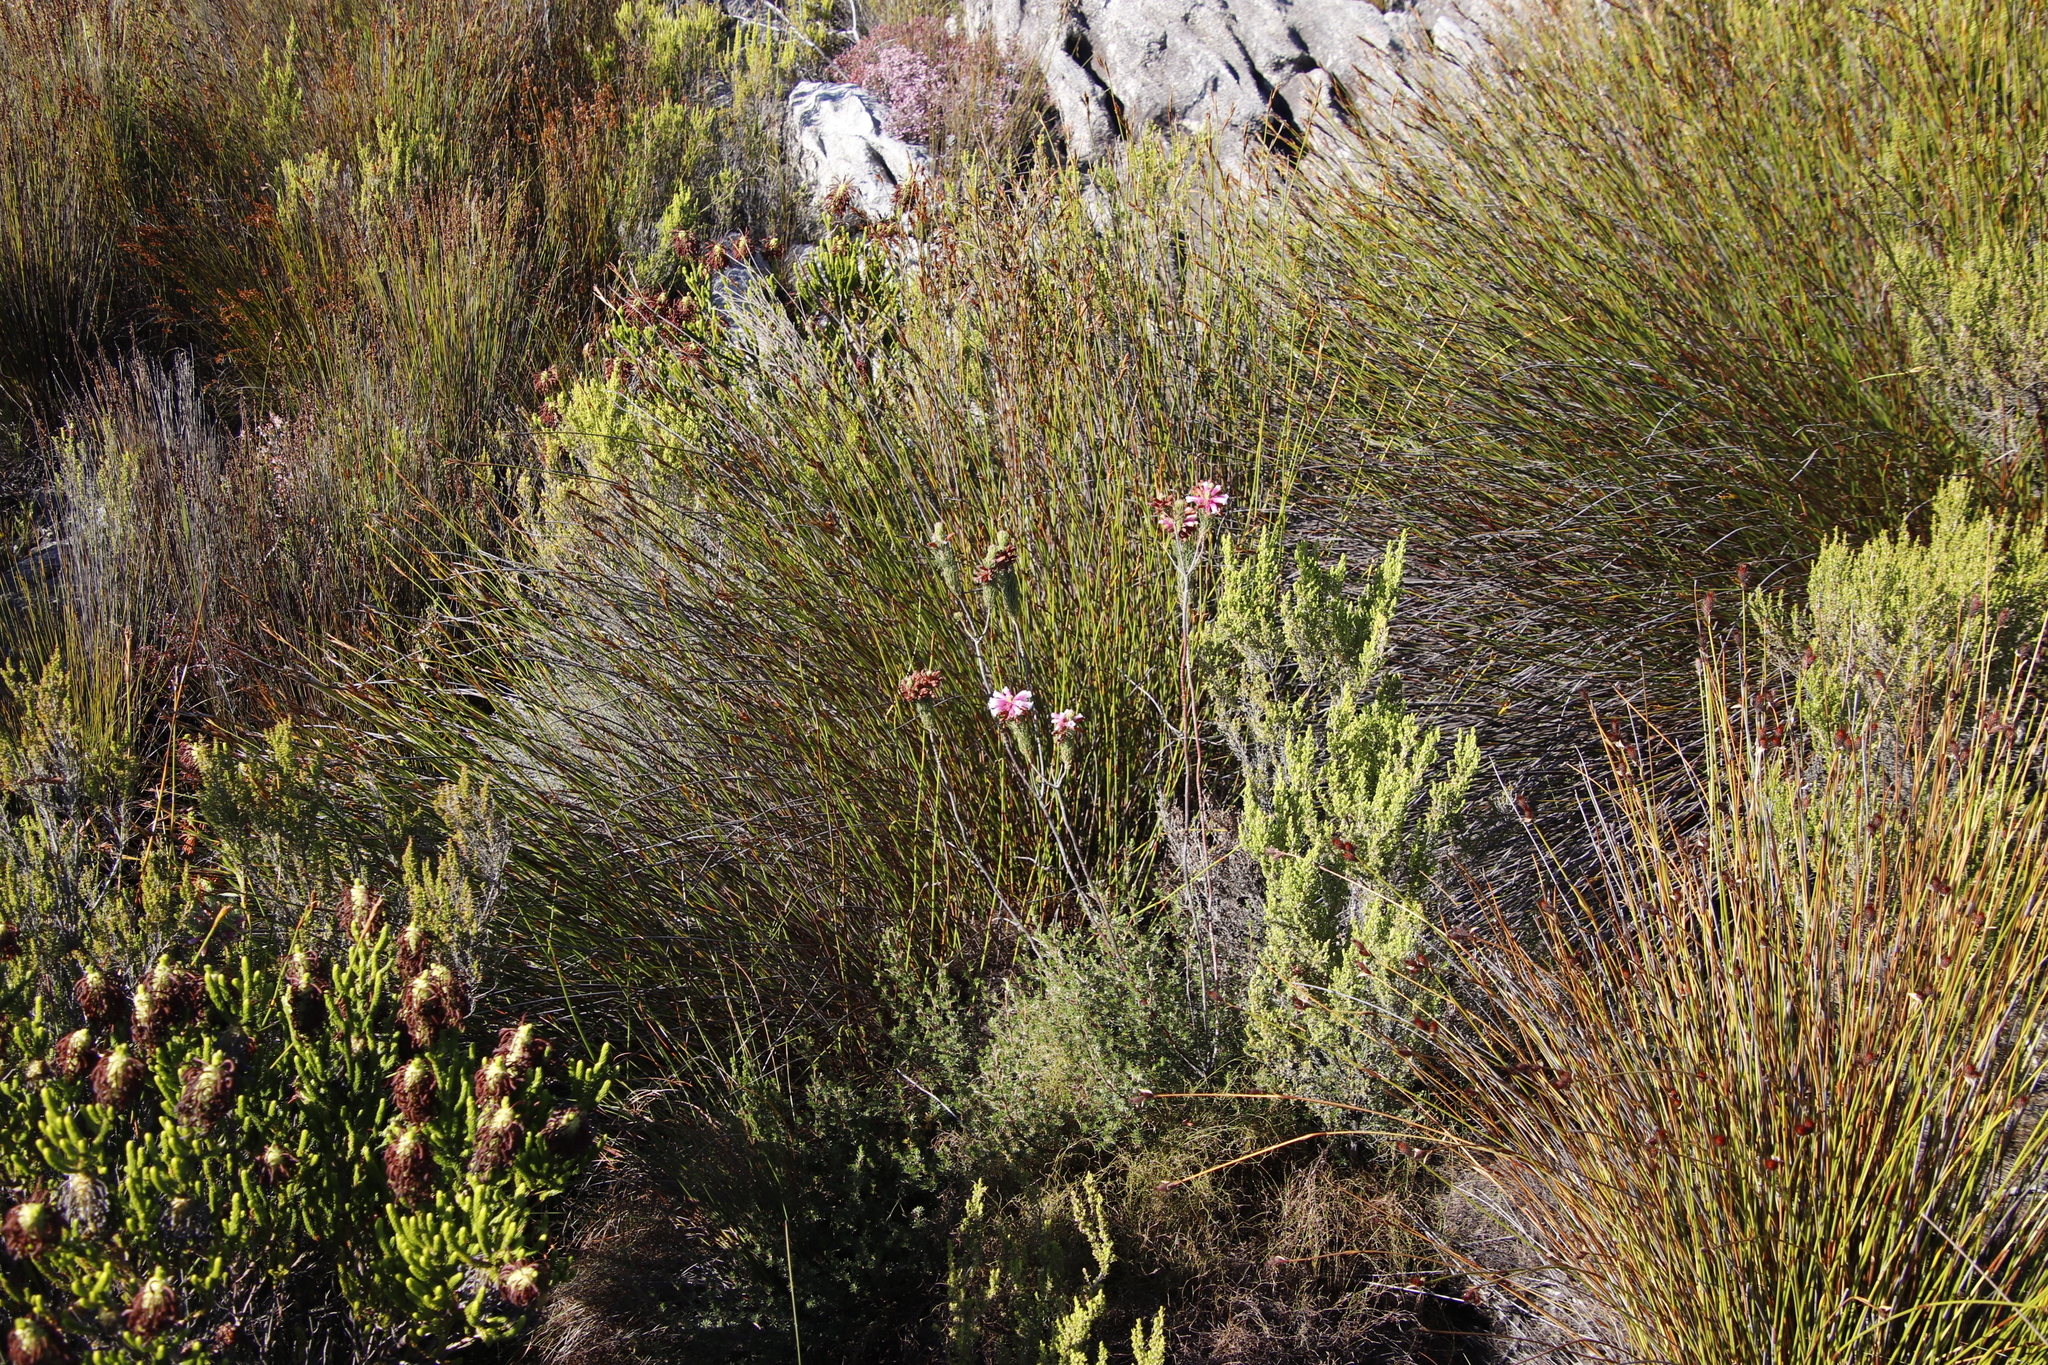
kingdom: Plantae
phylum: Tracheophyta
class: Magnoliopsida
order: Ericales
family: Ericaceae
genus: Erica
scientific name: Erica viscaria
